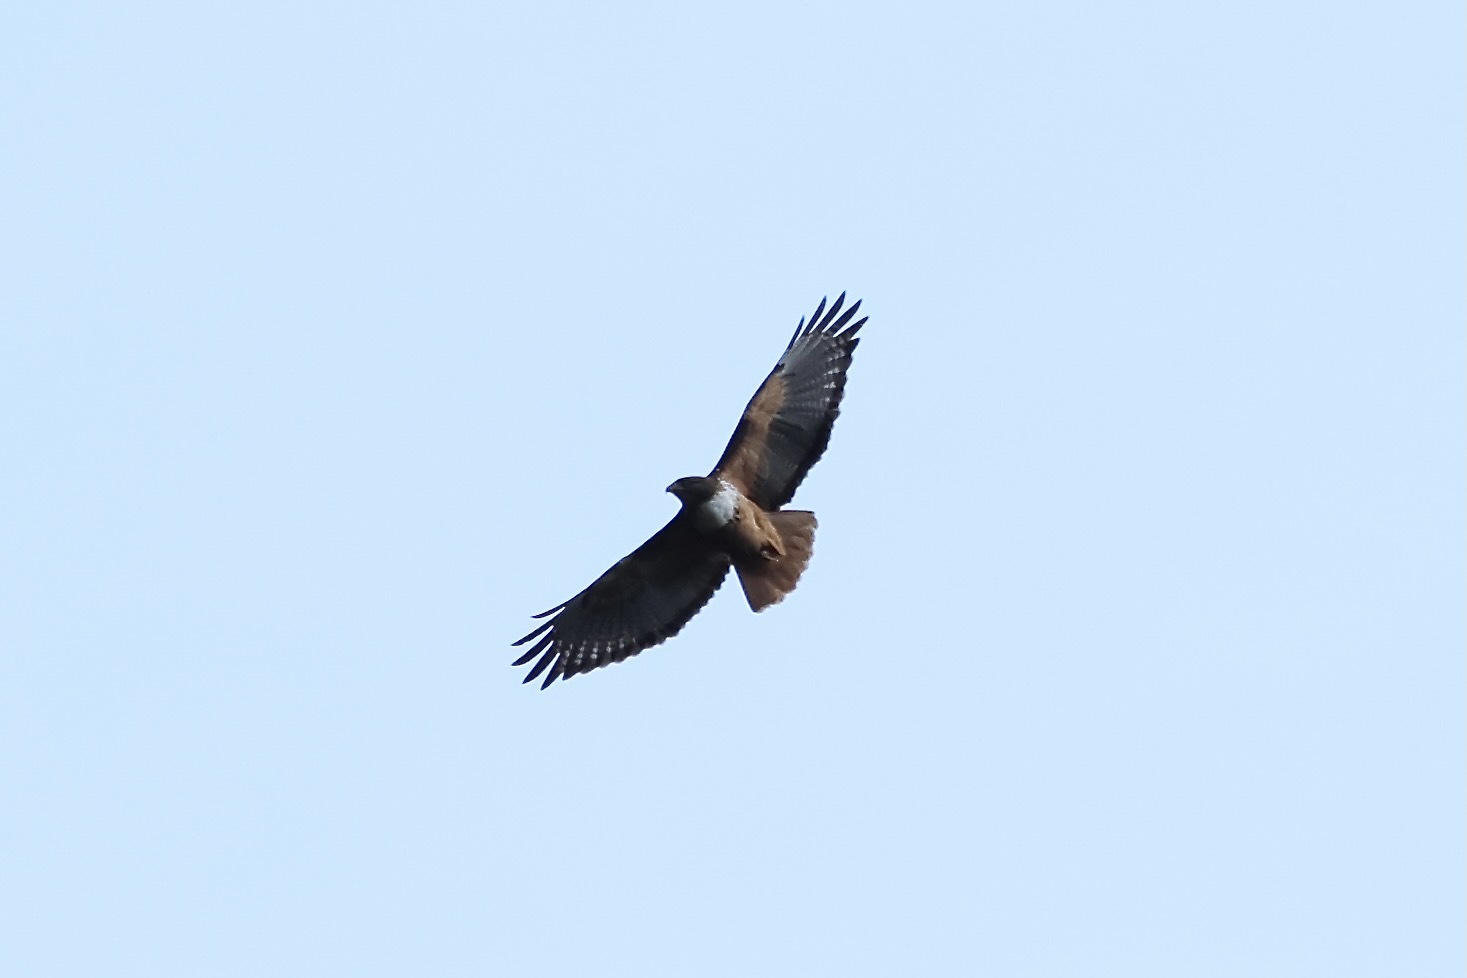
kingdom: Animalia
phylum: Chordata
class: Aves
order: Accipitriformes
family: Accipitridae
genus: Buteo
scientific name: Buteo jamaicensis
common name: Red-tailed hawk
